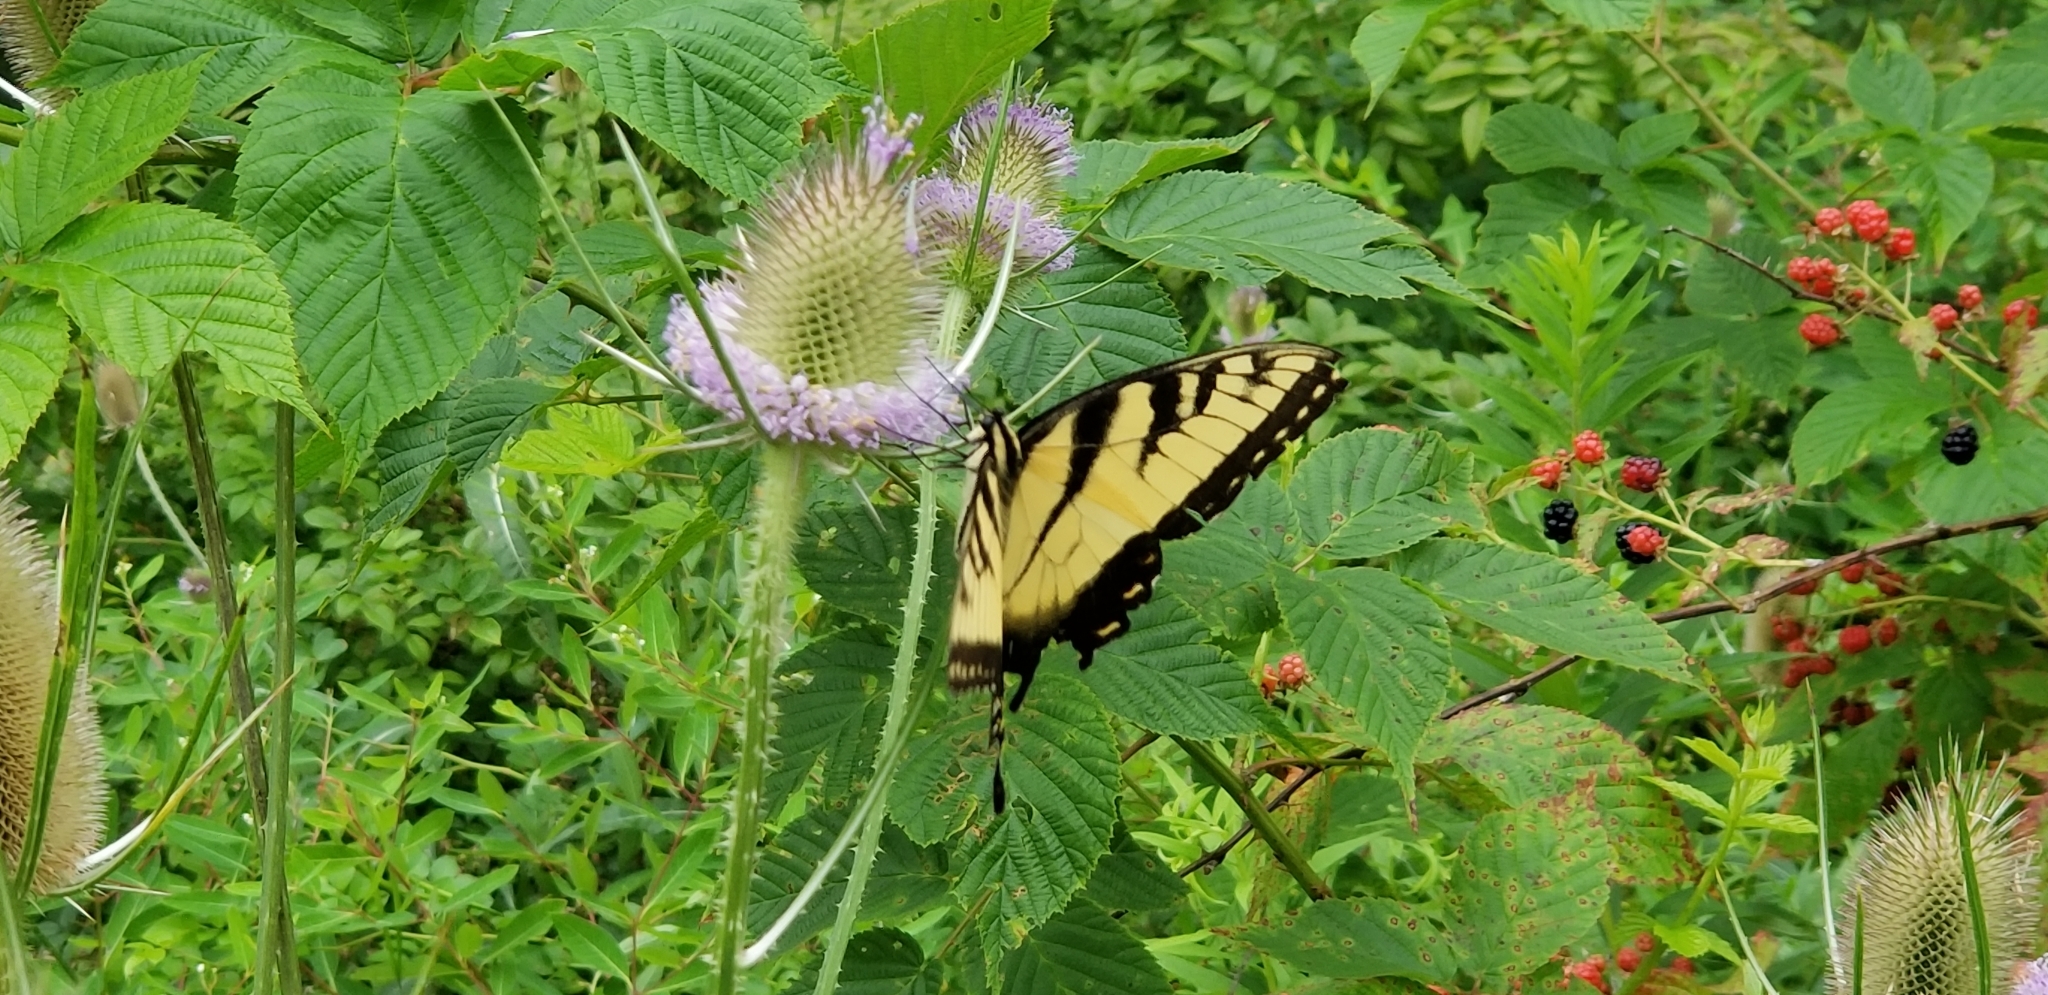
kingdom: Animalia
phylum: Arthropoda
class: Insecta
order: Lepidoptera
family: Papilionidae
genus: Papilio
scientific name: Papilio glaucus
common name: Tiger swallowtail
